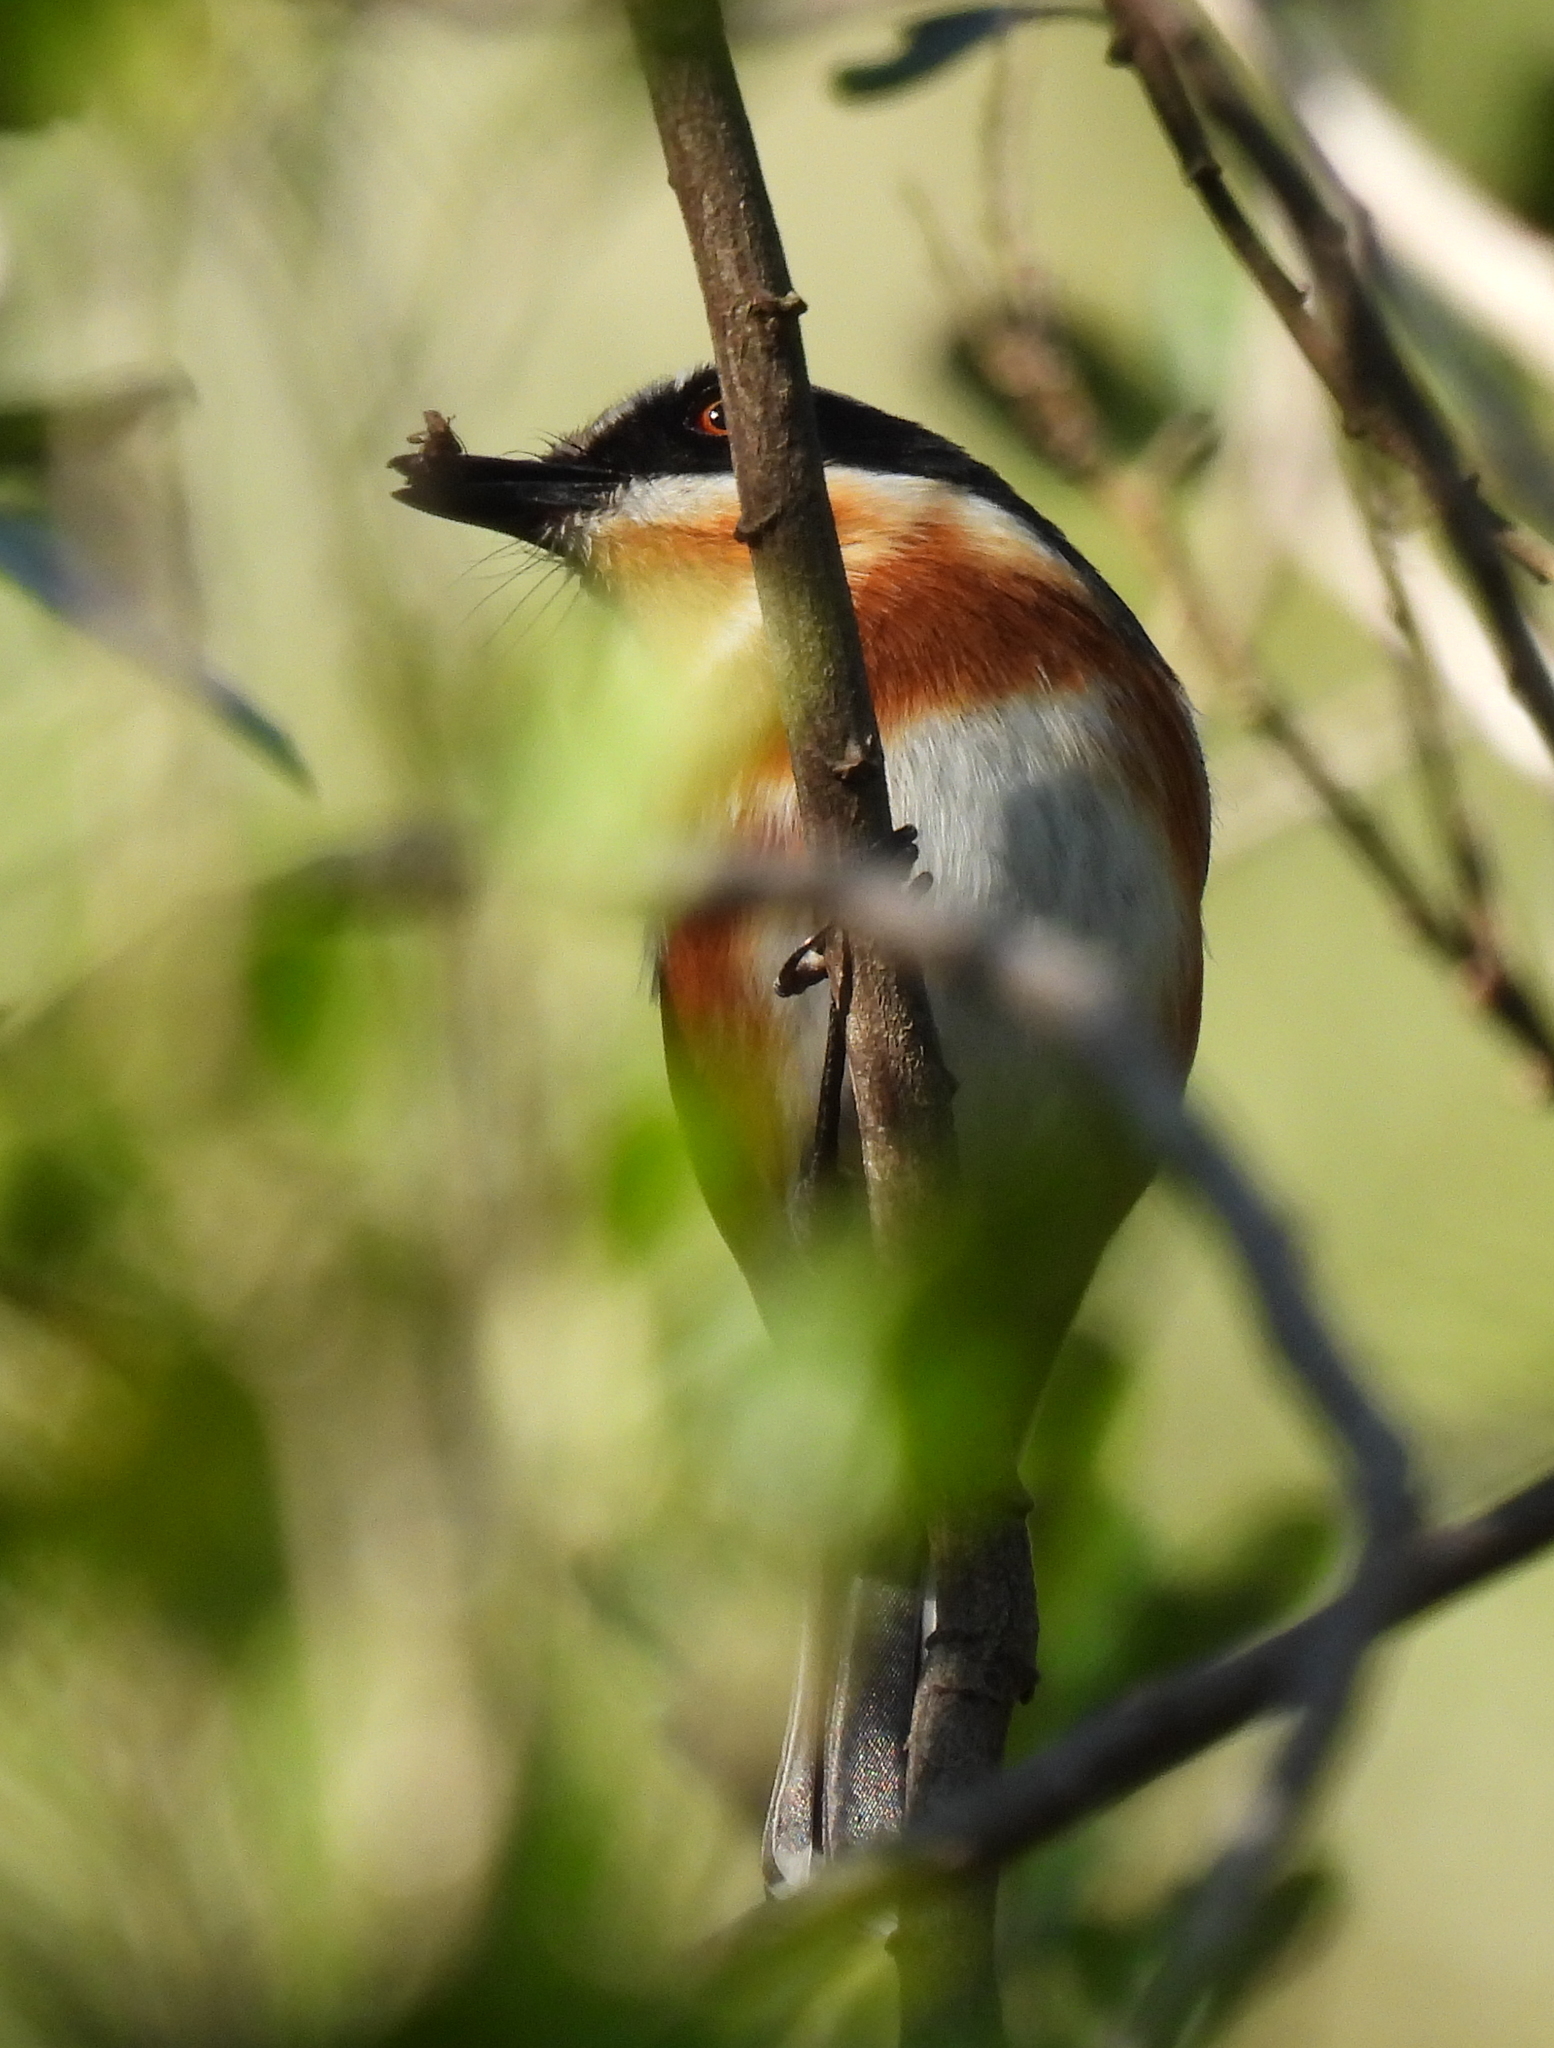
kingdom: Animalia
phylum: Chordata
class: Aves
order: Passeriformes
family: Platysteiridae
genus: Batis
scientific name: Batis capensis
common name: Cape batis
